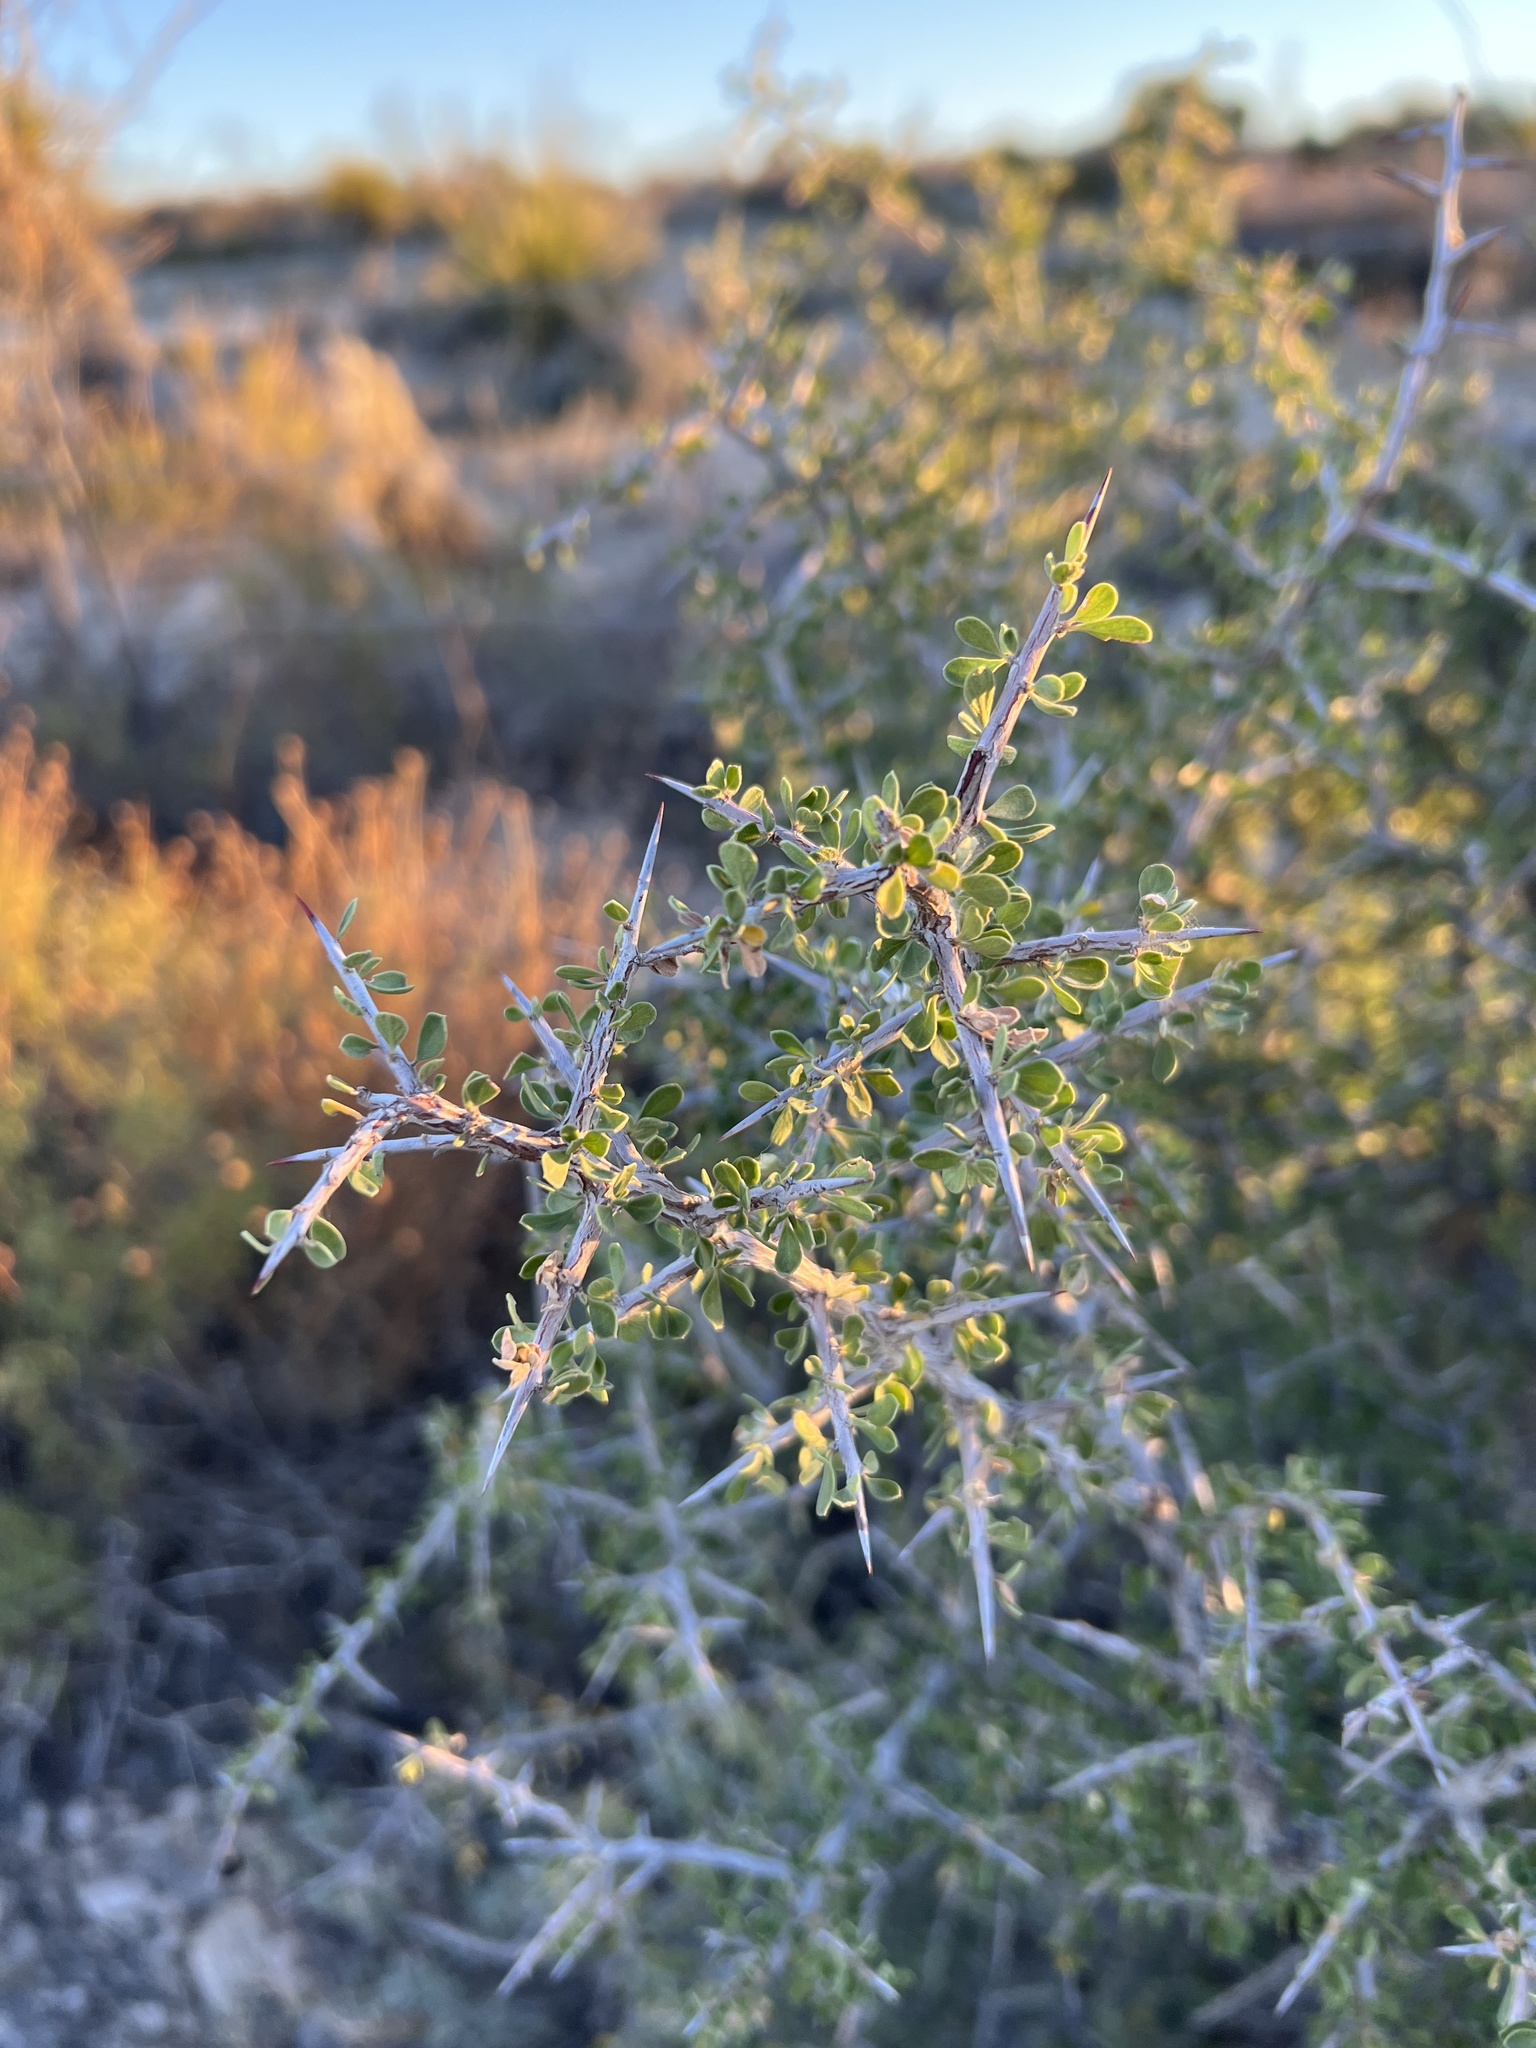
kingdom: Plantae
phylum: Tracheophyta
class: Magnoliopsida
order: Rosales
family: Rhamnaceae
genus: Condalia
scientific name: Condalia viridis
